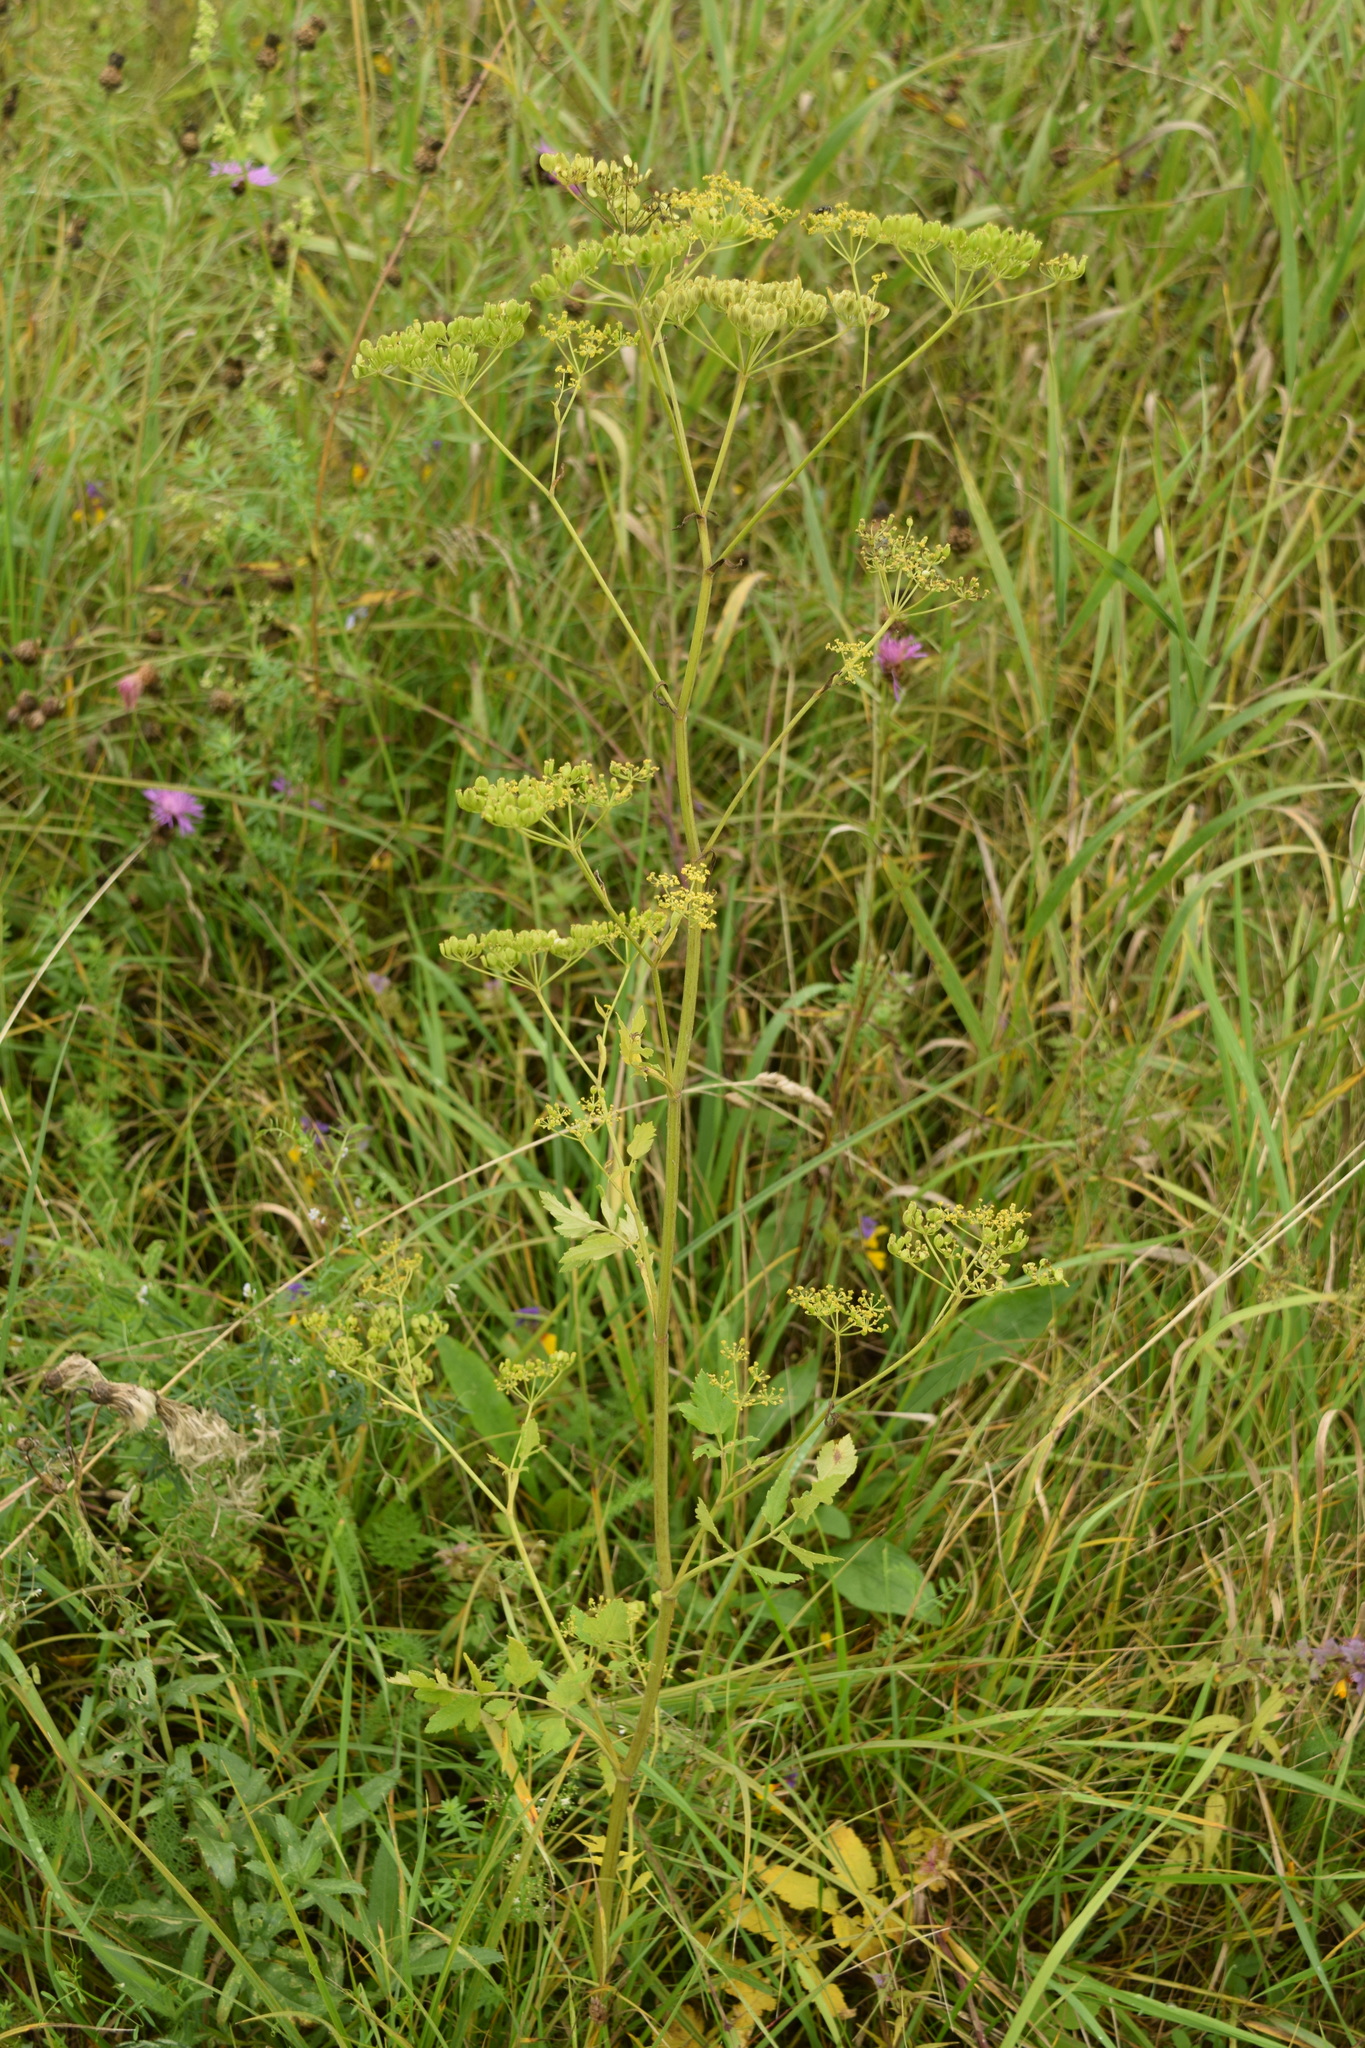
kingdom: Plantae
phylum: Tracheophyta
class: Magnoliopsida
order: Apiales
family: Apiaceae
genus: Pastinaca
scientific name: Pastinaca sativa
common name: Wild parsnip
